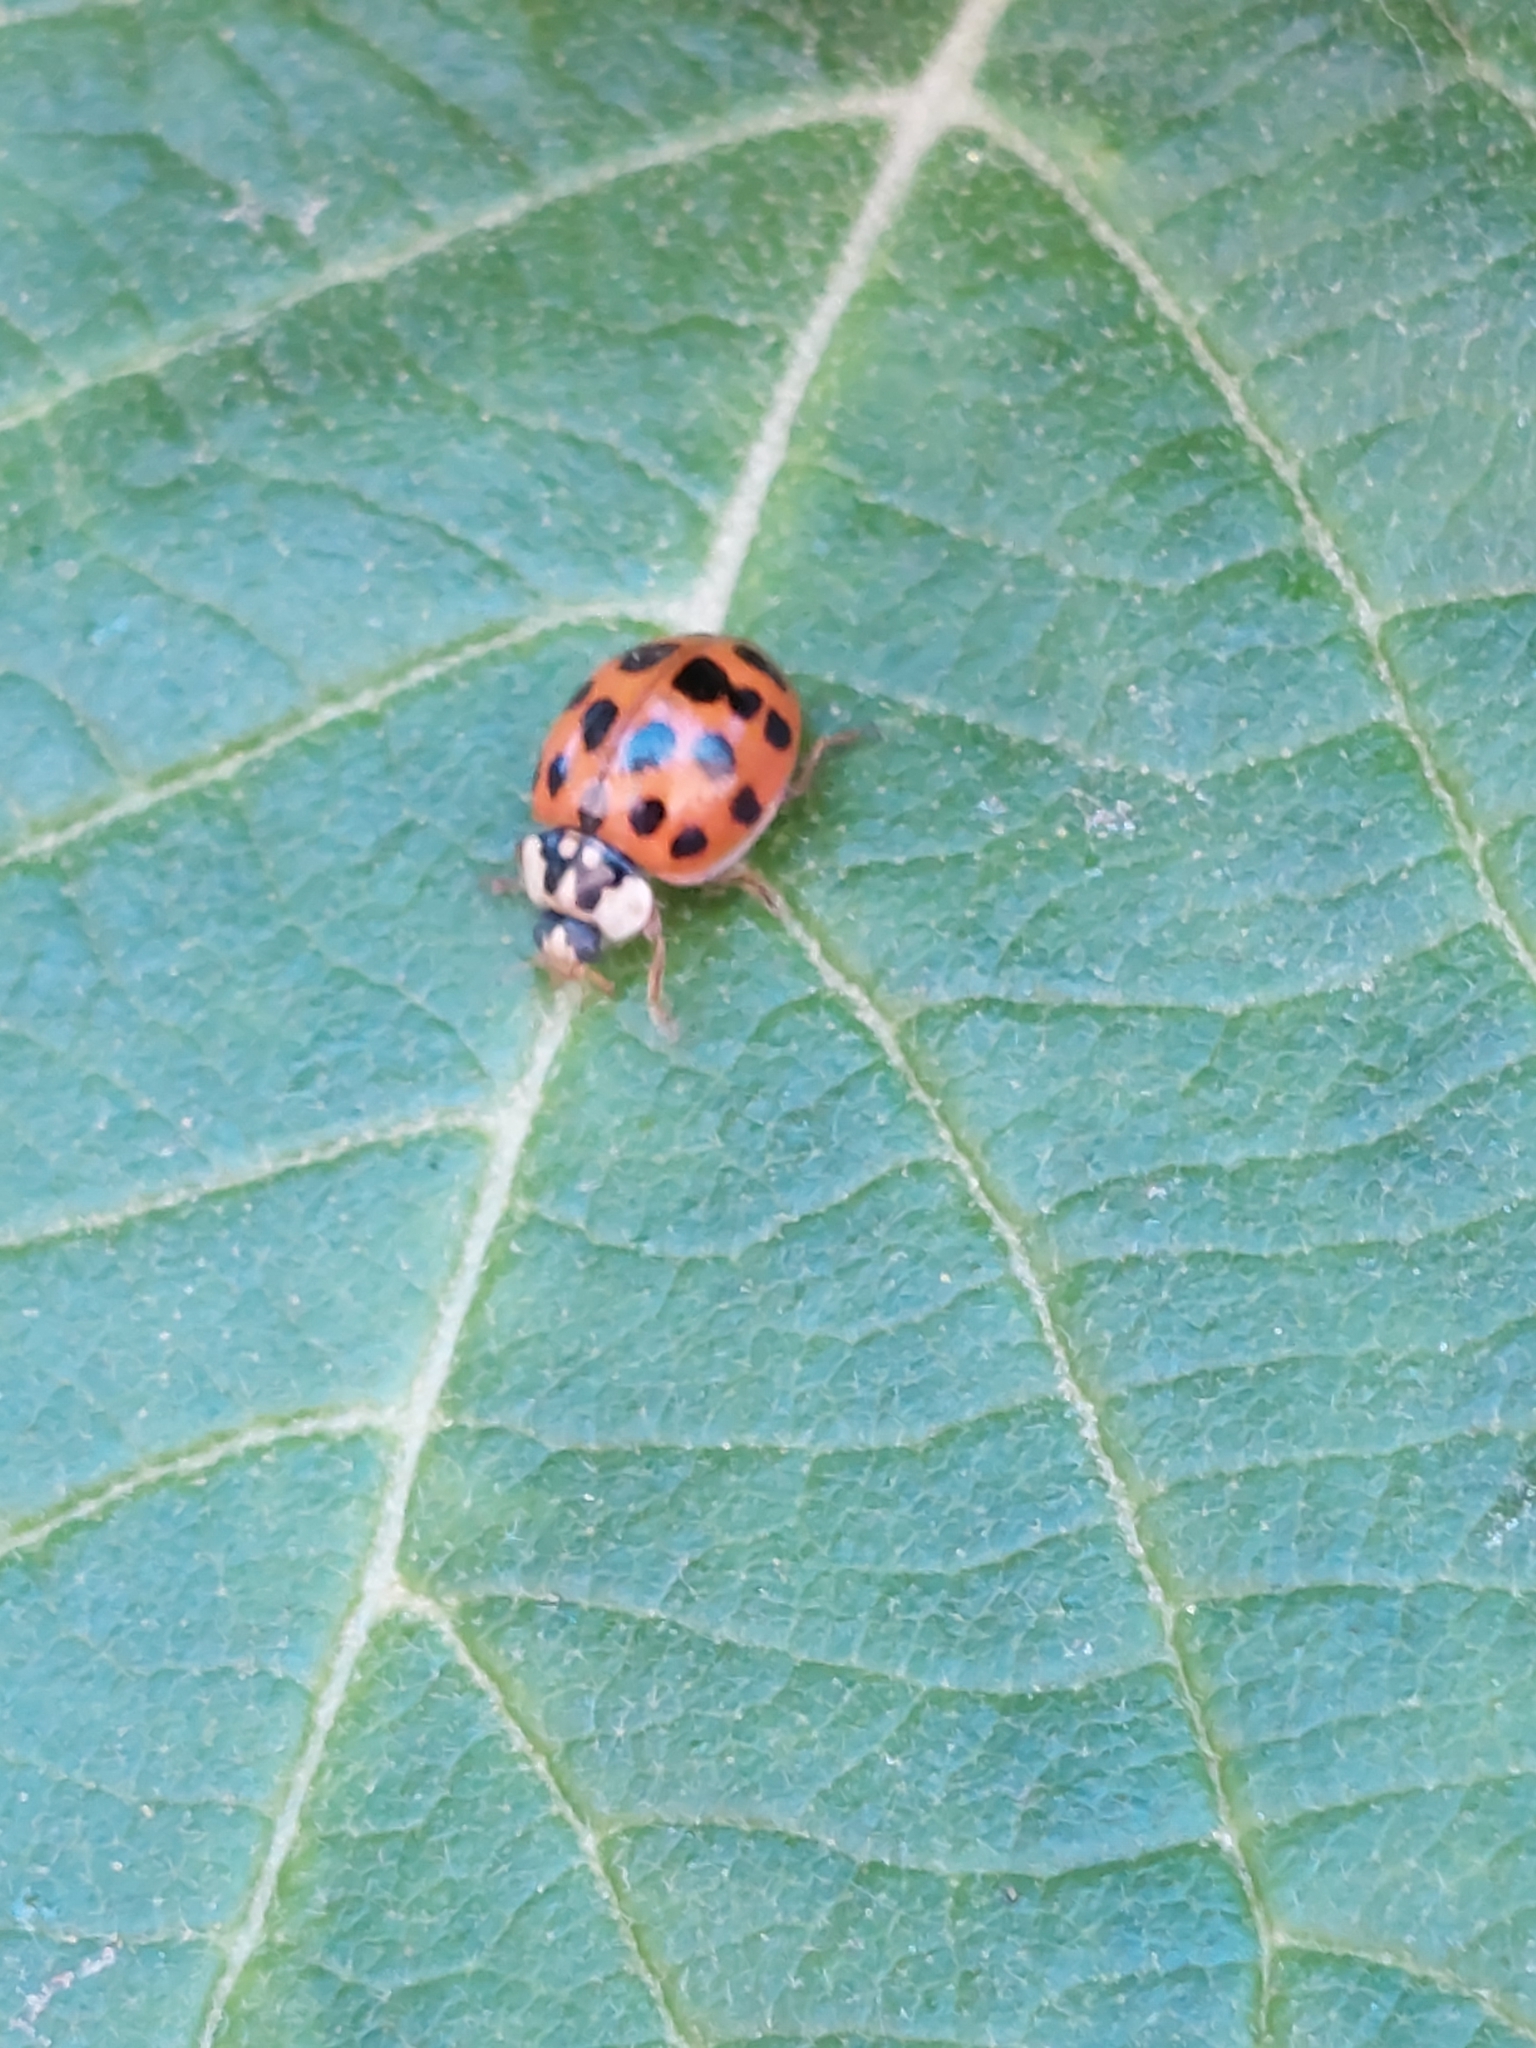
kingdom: Animalia
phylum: Arthropoda
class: Insecta
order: Coleoptera
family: Coccinellidae
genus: Harmonia
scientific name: Harmonia axyridis
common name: Harlequin ladybird
